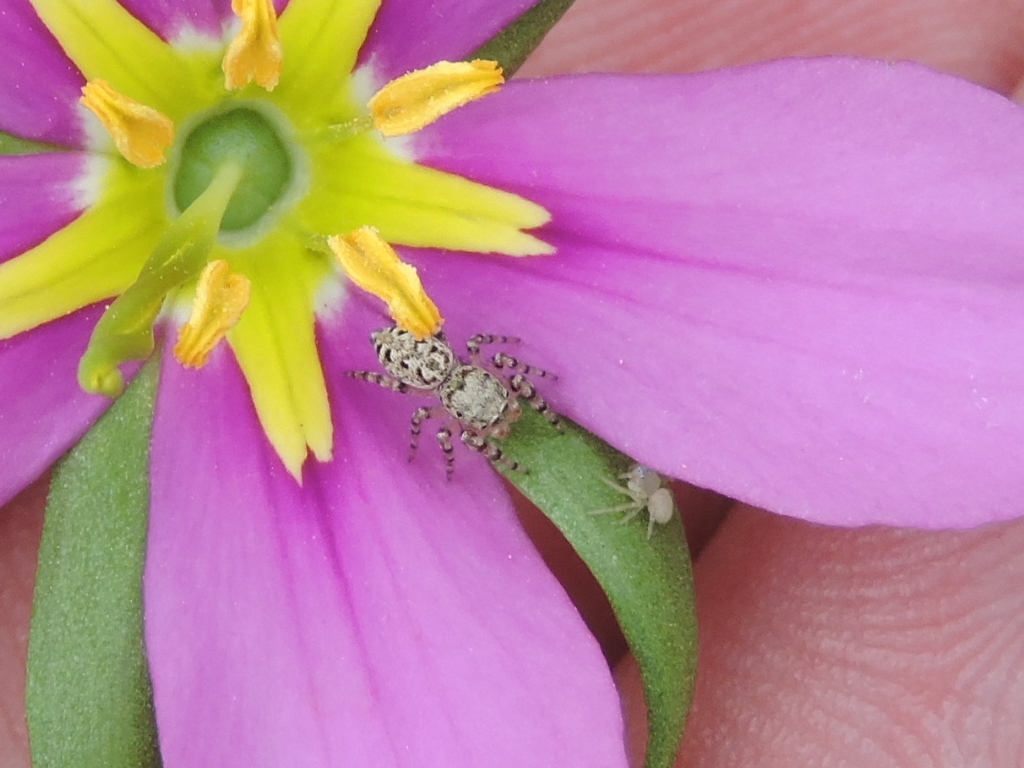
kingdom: Animalia
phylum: Arthropoda
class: Arachnida
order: Araneae
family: Salticidae
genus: Pelegrina
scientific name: Pelegrina galathea
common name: Jumping spiders
